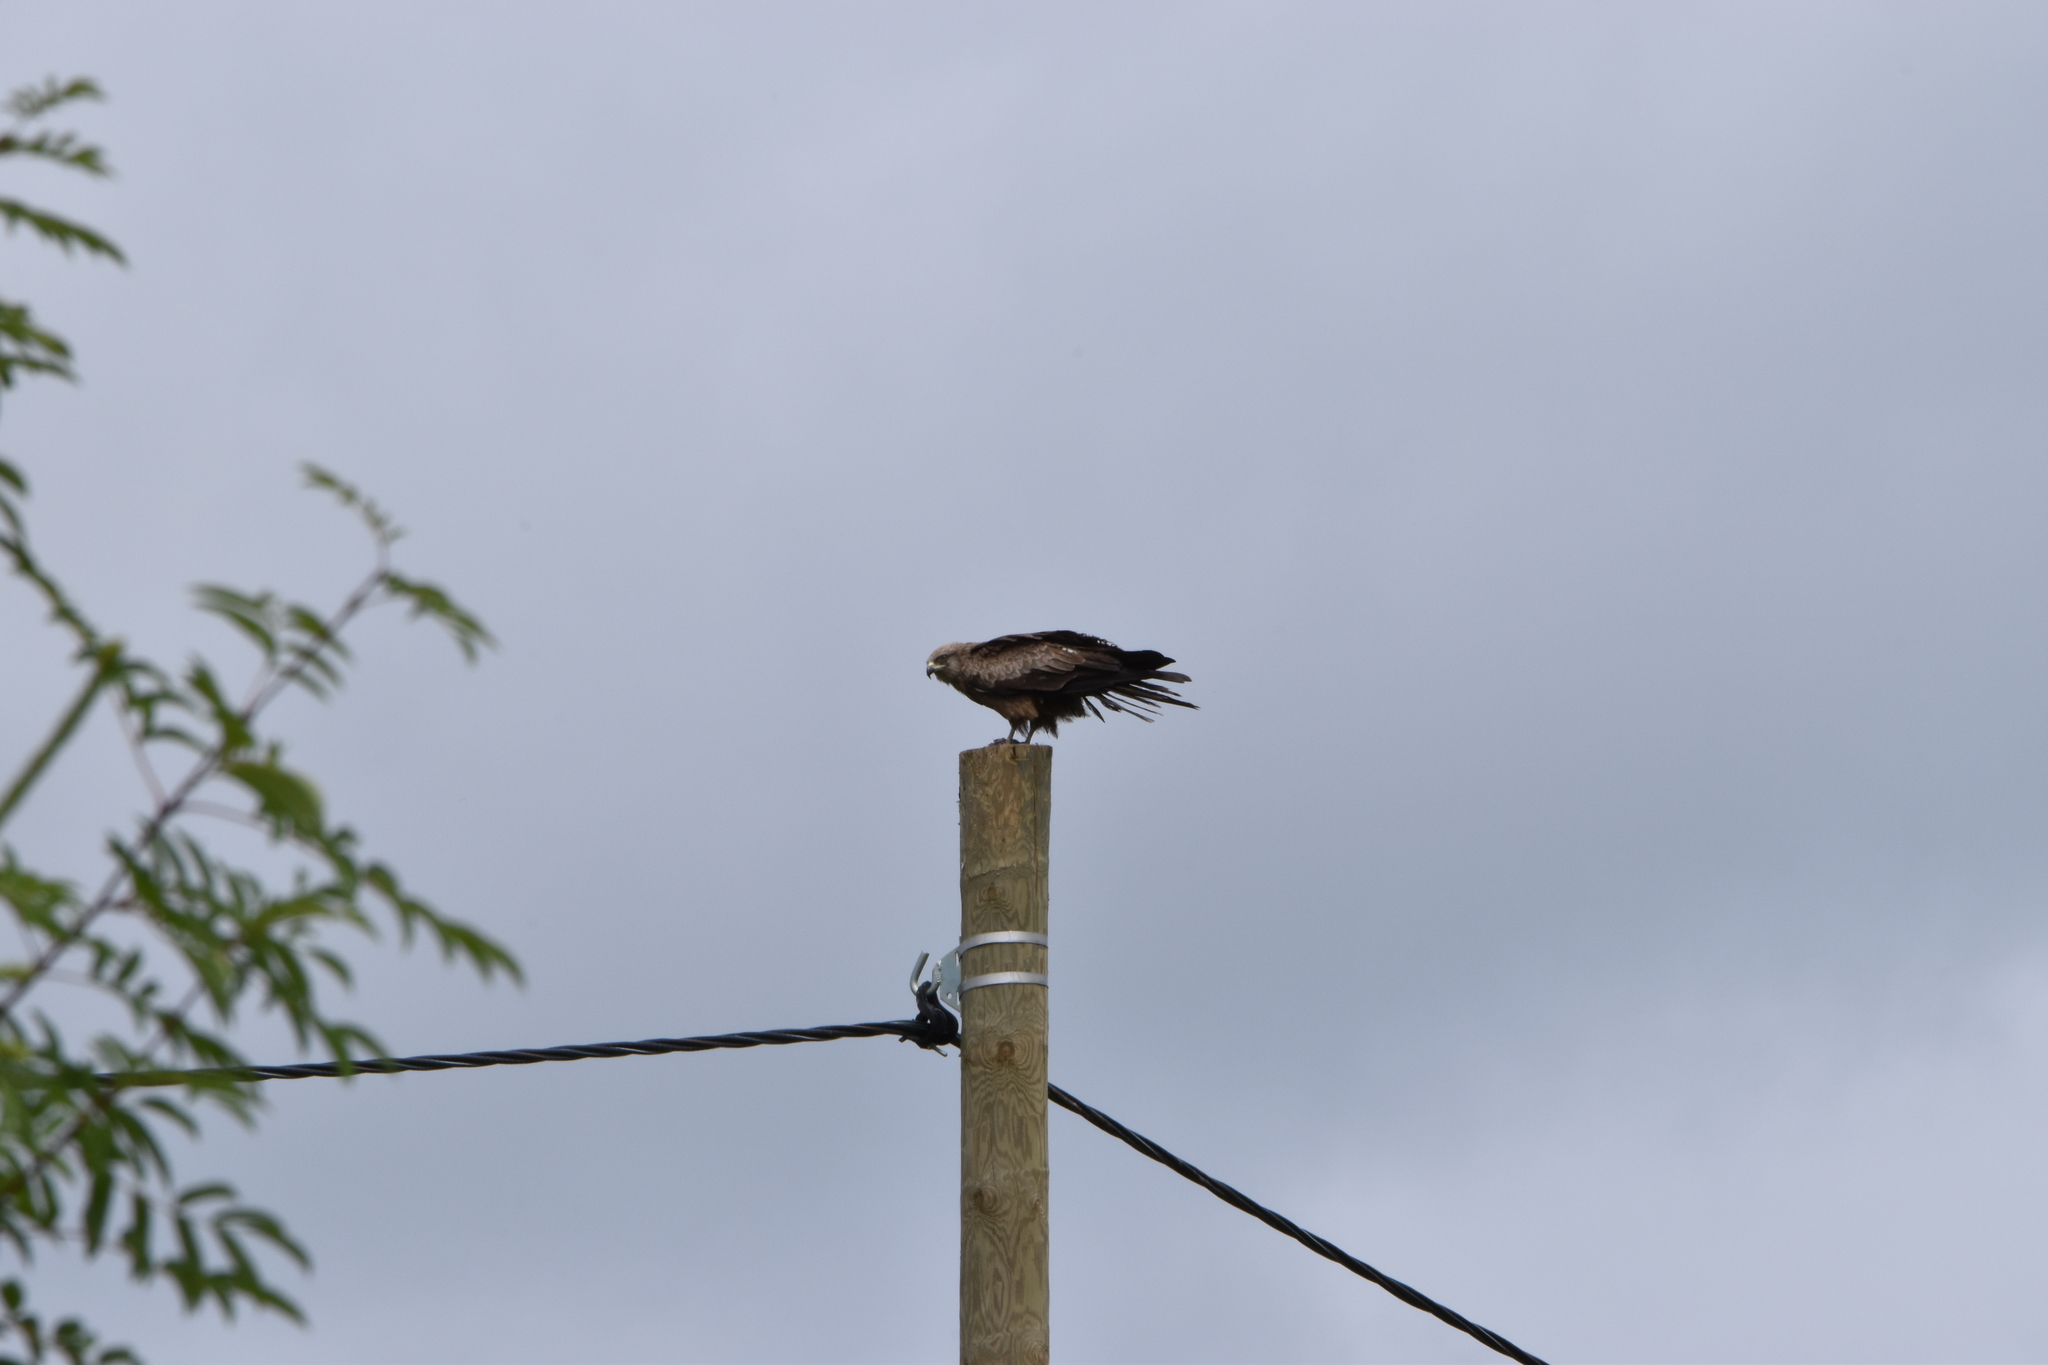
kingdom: Animalia
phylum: Chordata
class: Aves
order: Accipitriformes
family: Accipitridae
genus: Milvus
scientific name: Milvus migrans
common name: Black kite
